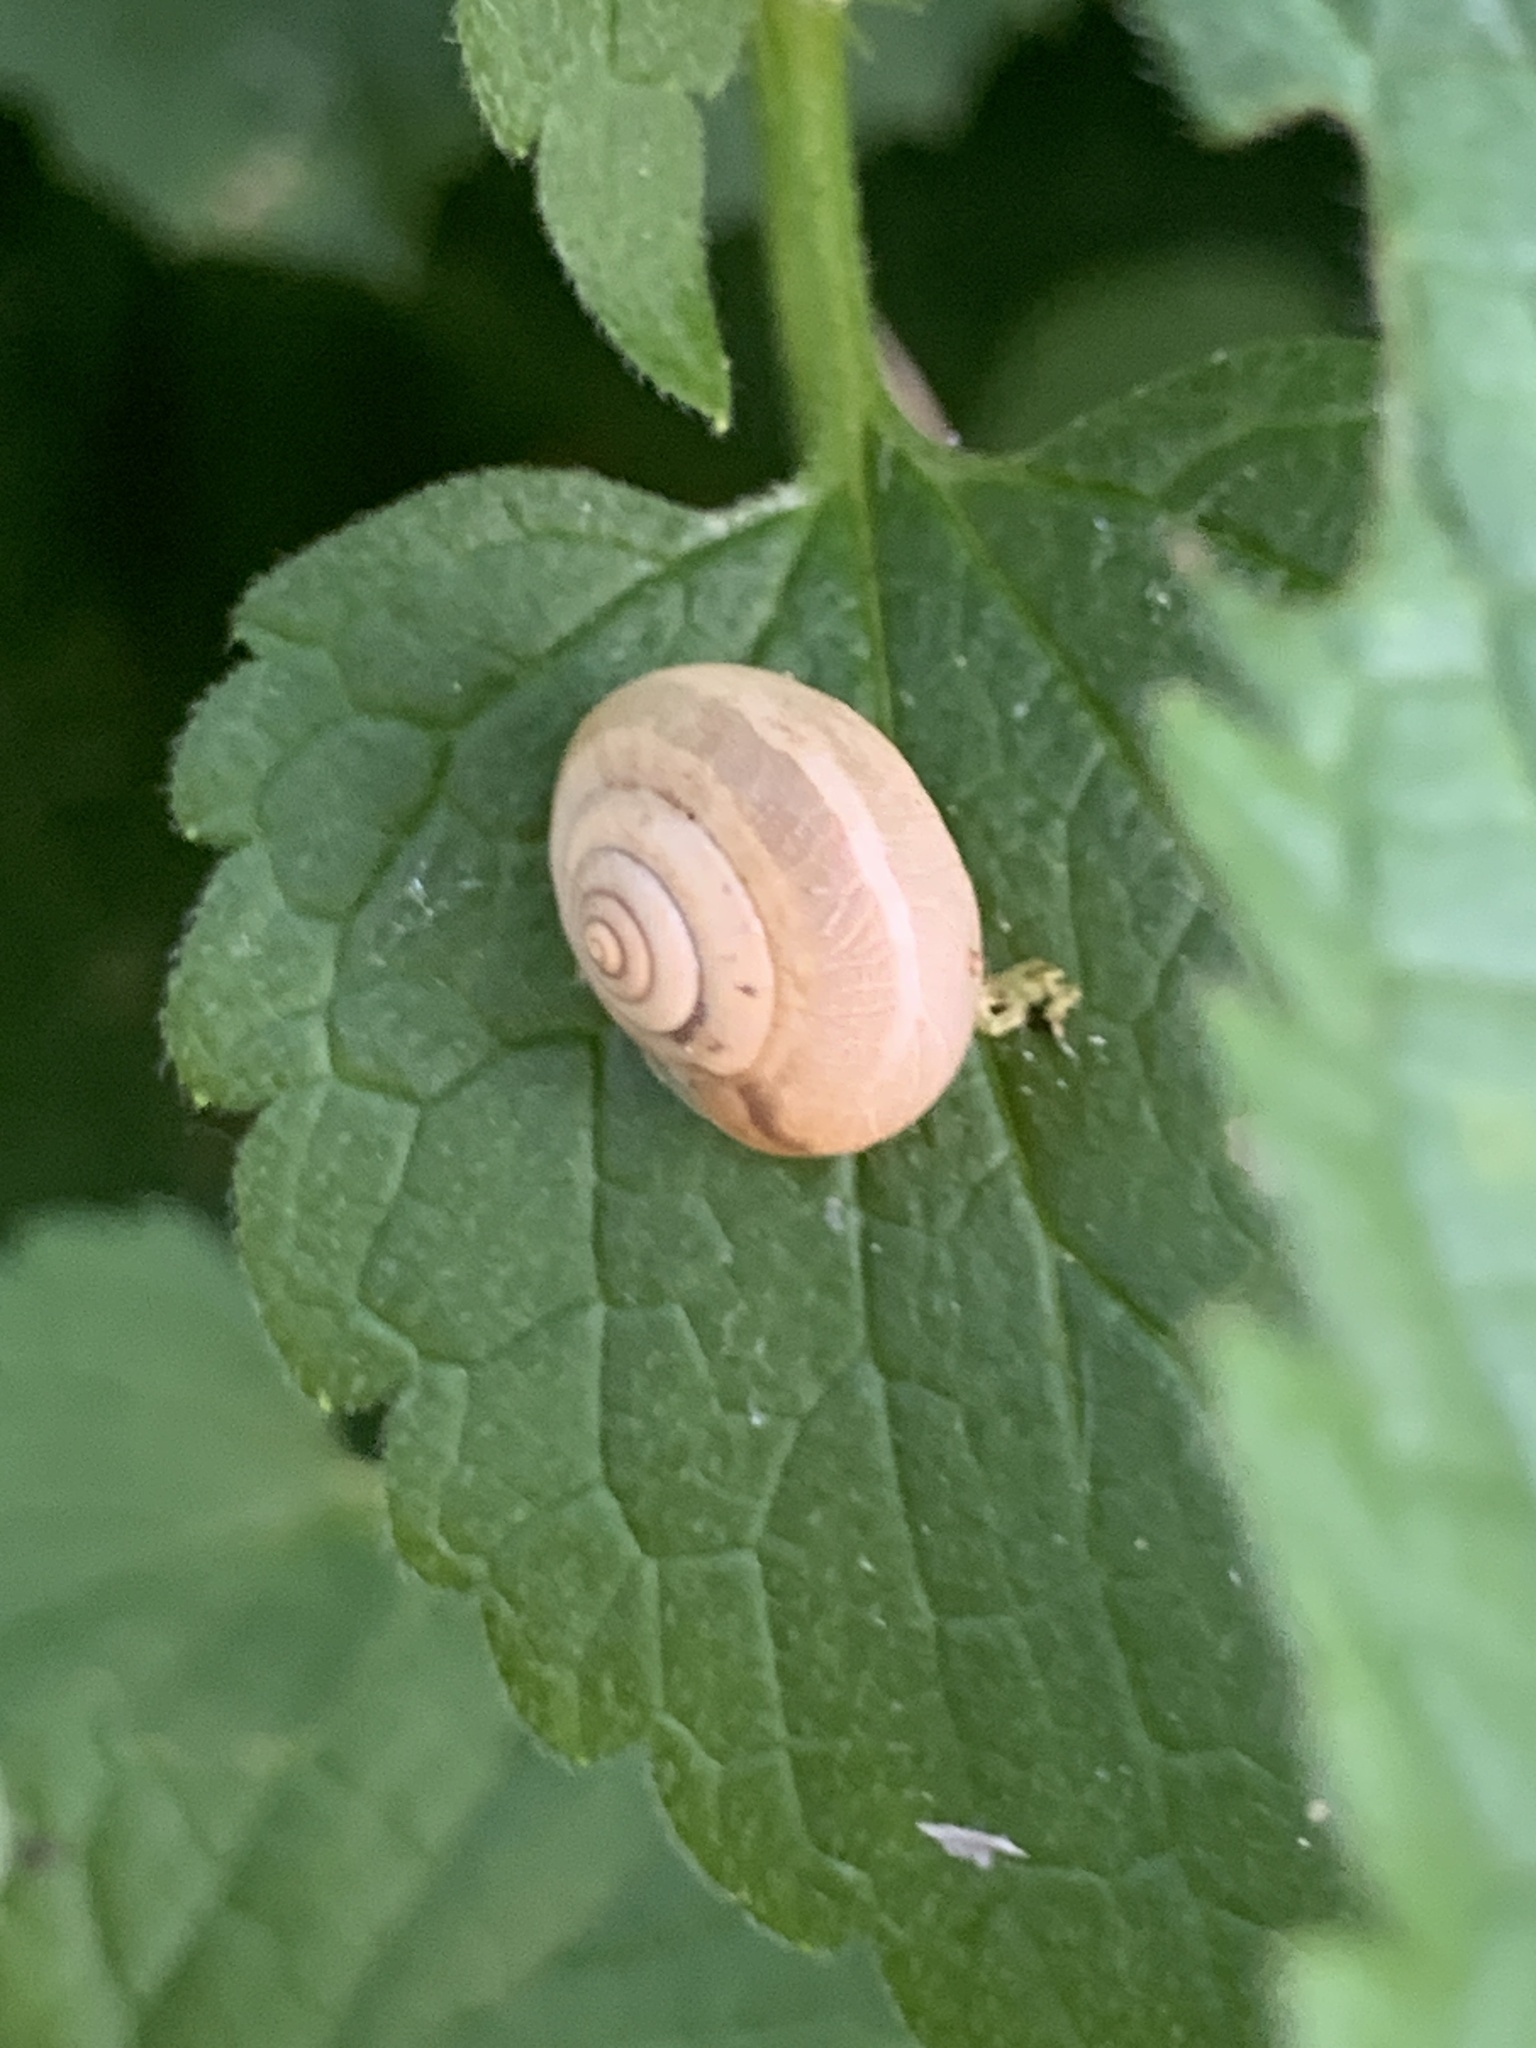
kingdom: Animalia
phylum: Mollusca
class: Gastropoda
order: Stylommatophora
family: Hygromiidae
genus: Monacha
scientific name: Monacha cartusiana
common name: Carthusian snail
